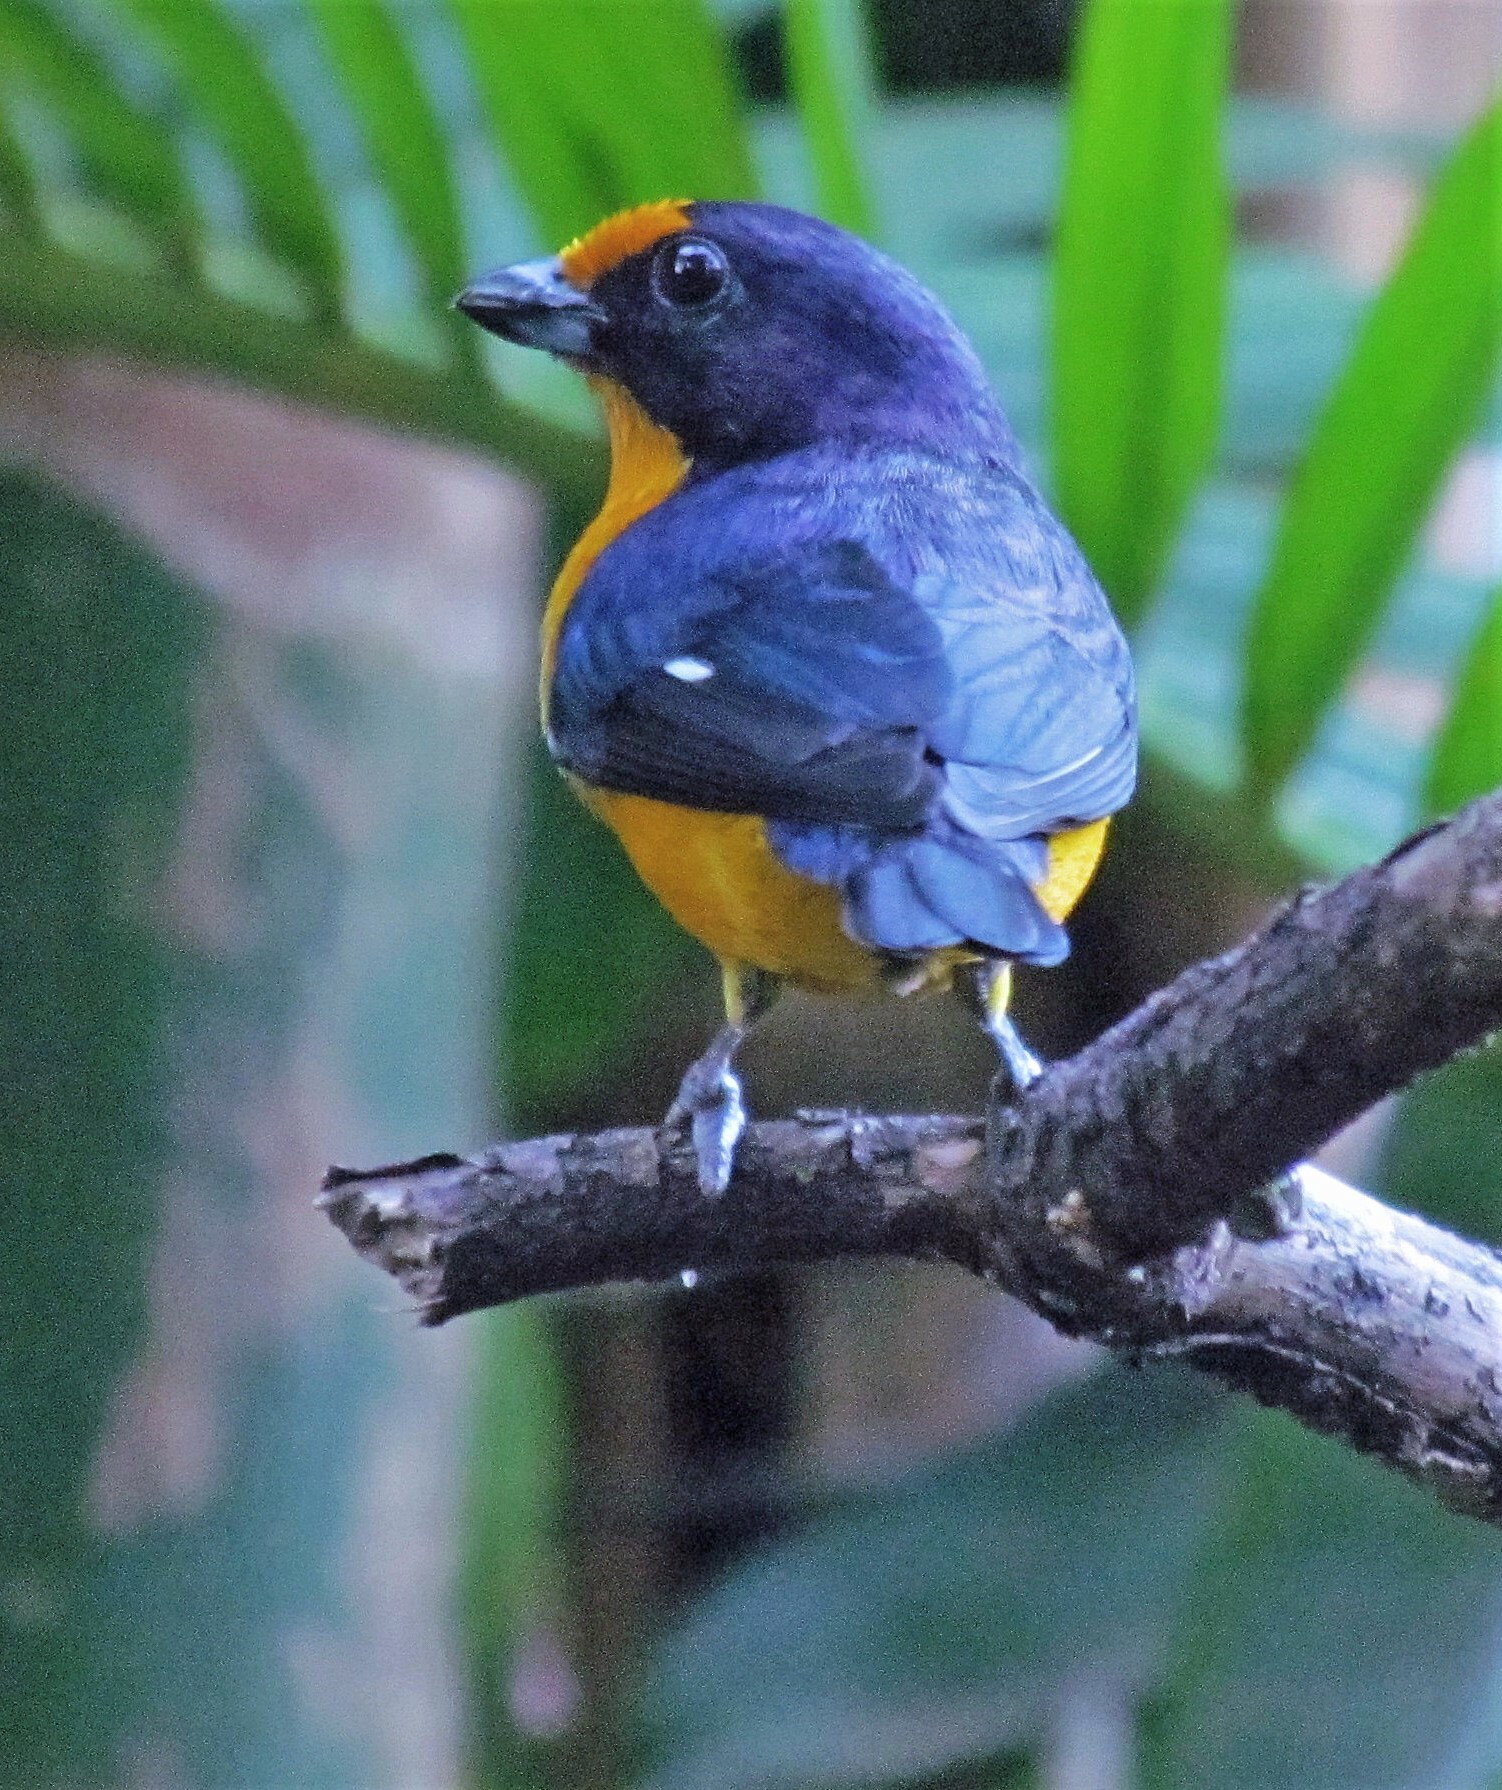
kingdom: Animalia
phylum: Chordata
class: Aves
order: Passeriformes
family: Fringillidae
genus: Euphonia
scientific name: Euphonia violacea
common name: Violaceous euphonia
